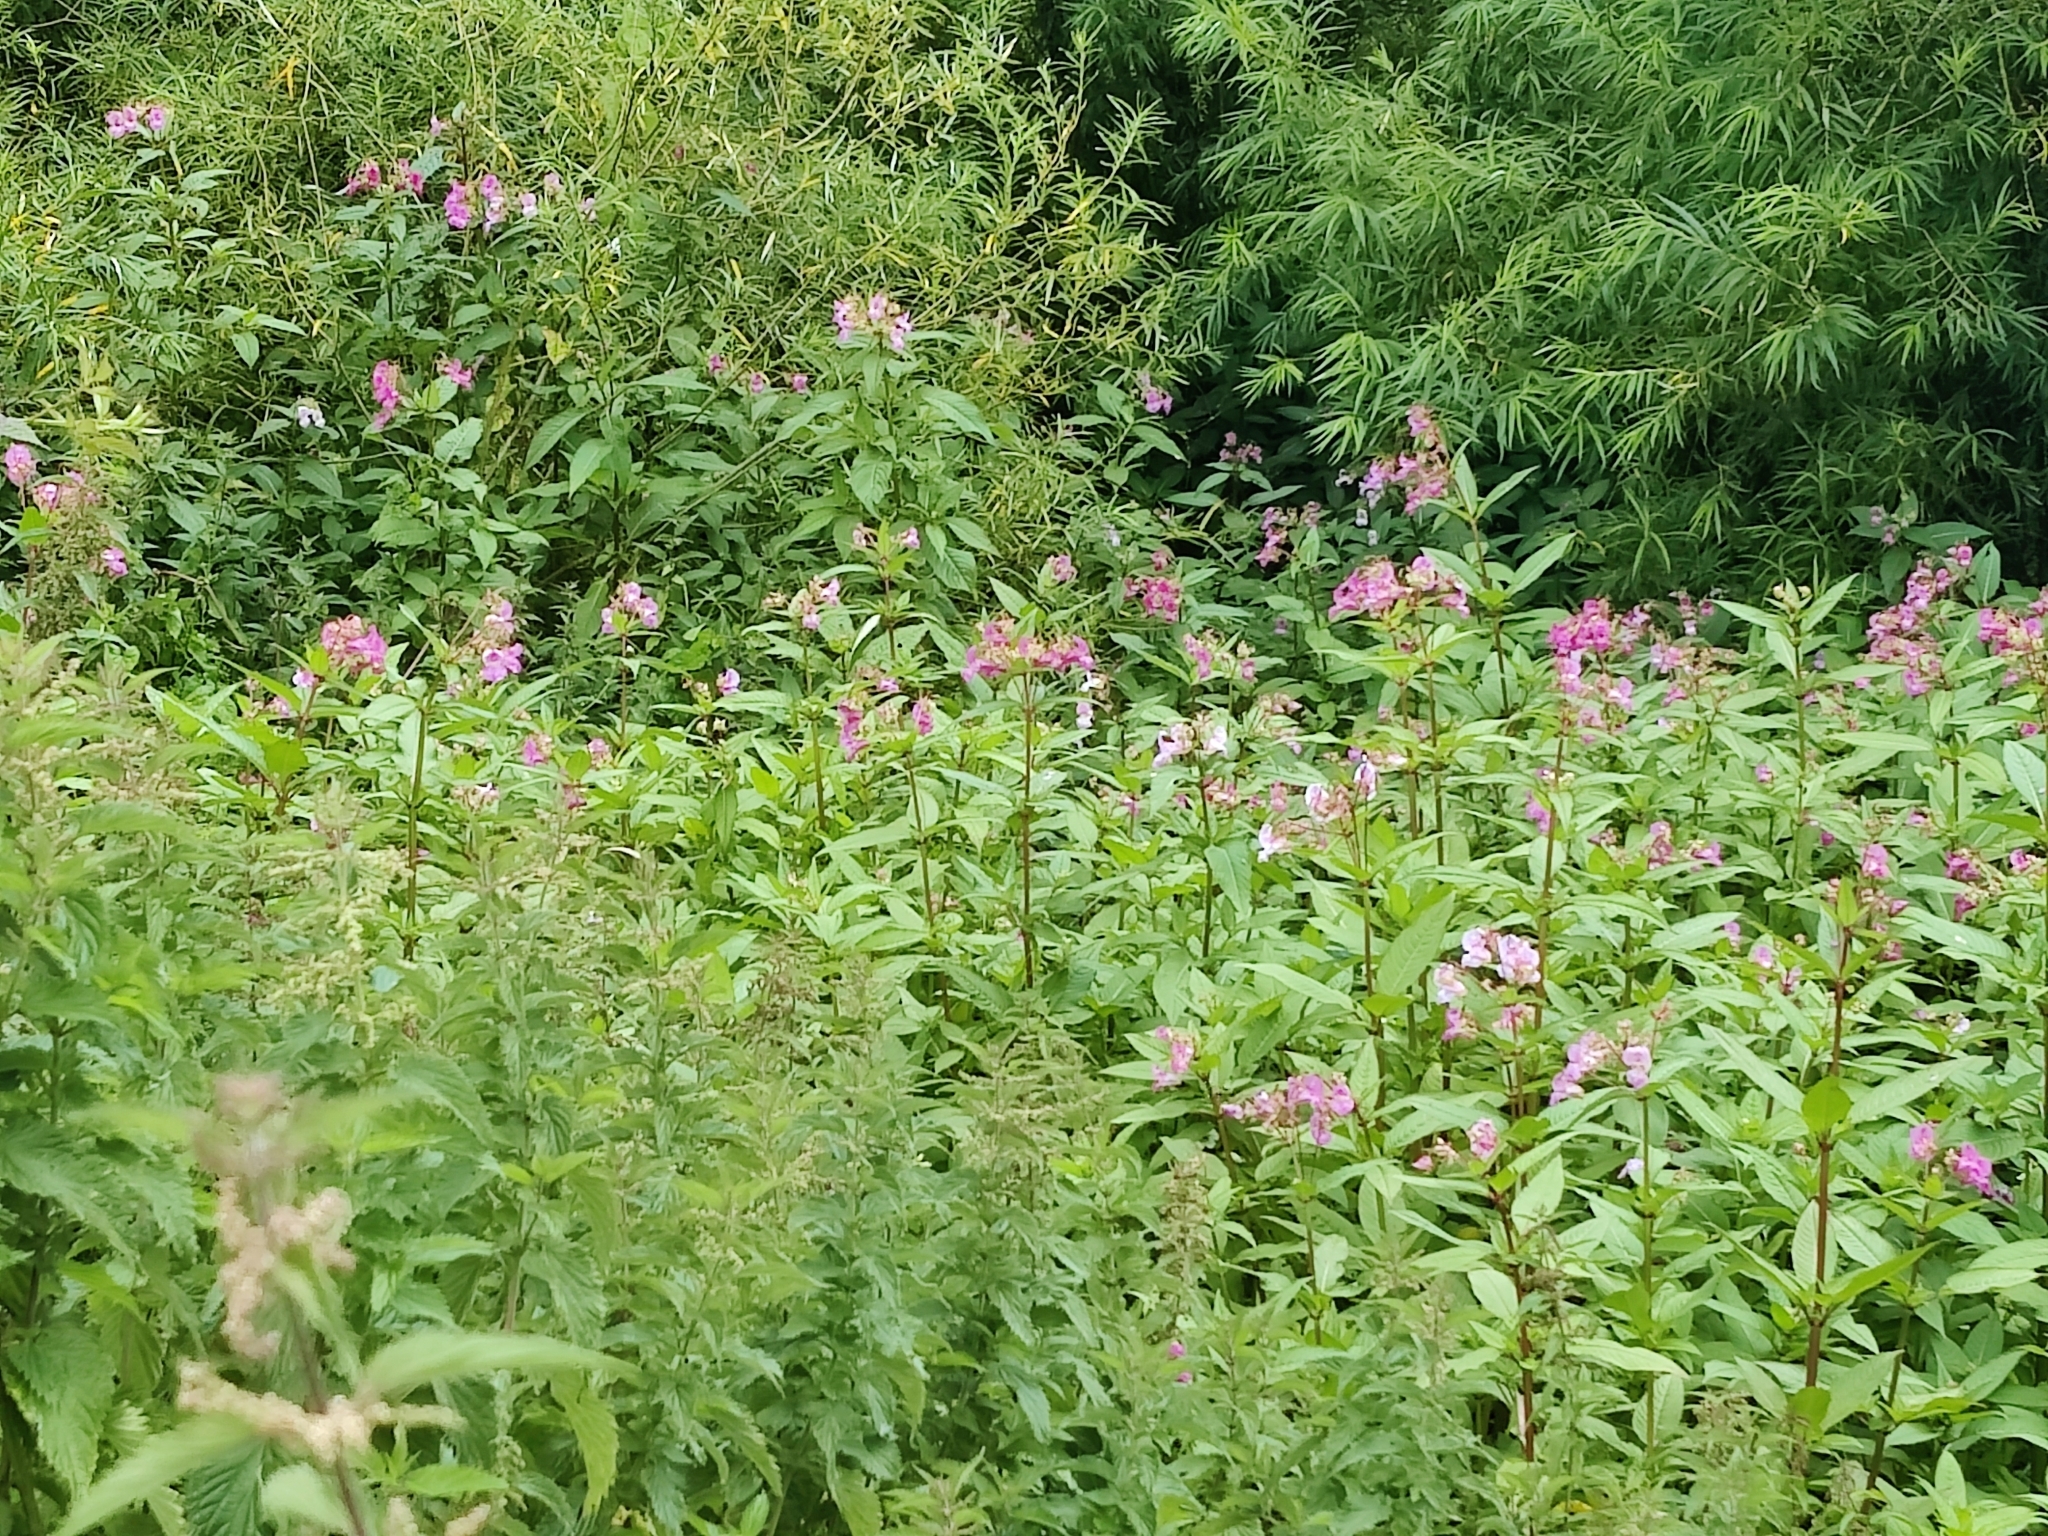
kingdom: Plantae
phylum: Tracheophyta
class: Magnoliopsida
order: Ericales
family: Balsaminaceae
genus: Impatiens
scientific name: Impatiens glandulifera
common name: Himalayan balsam
